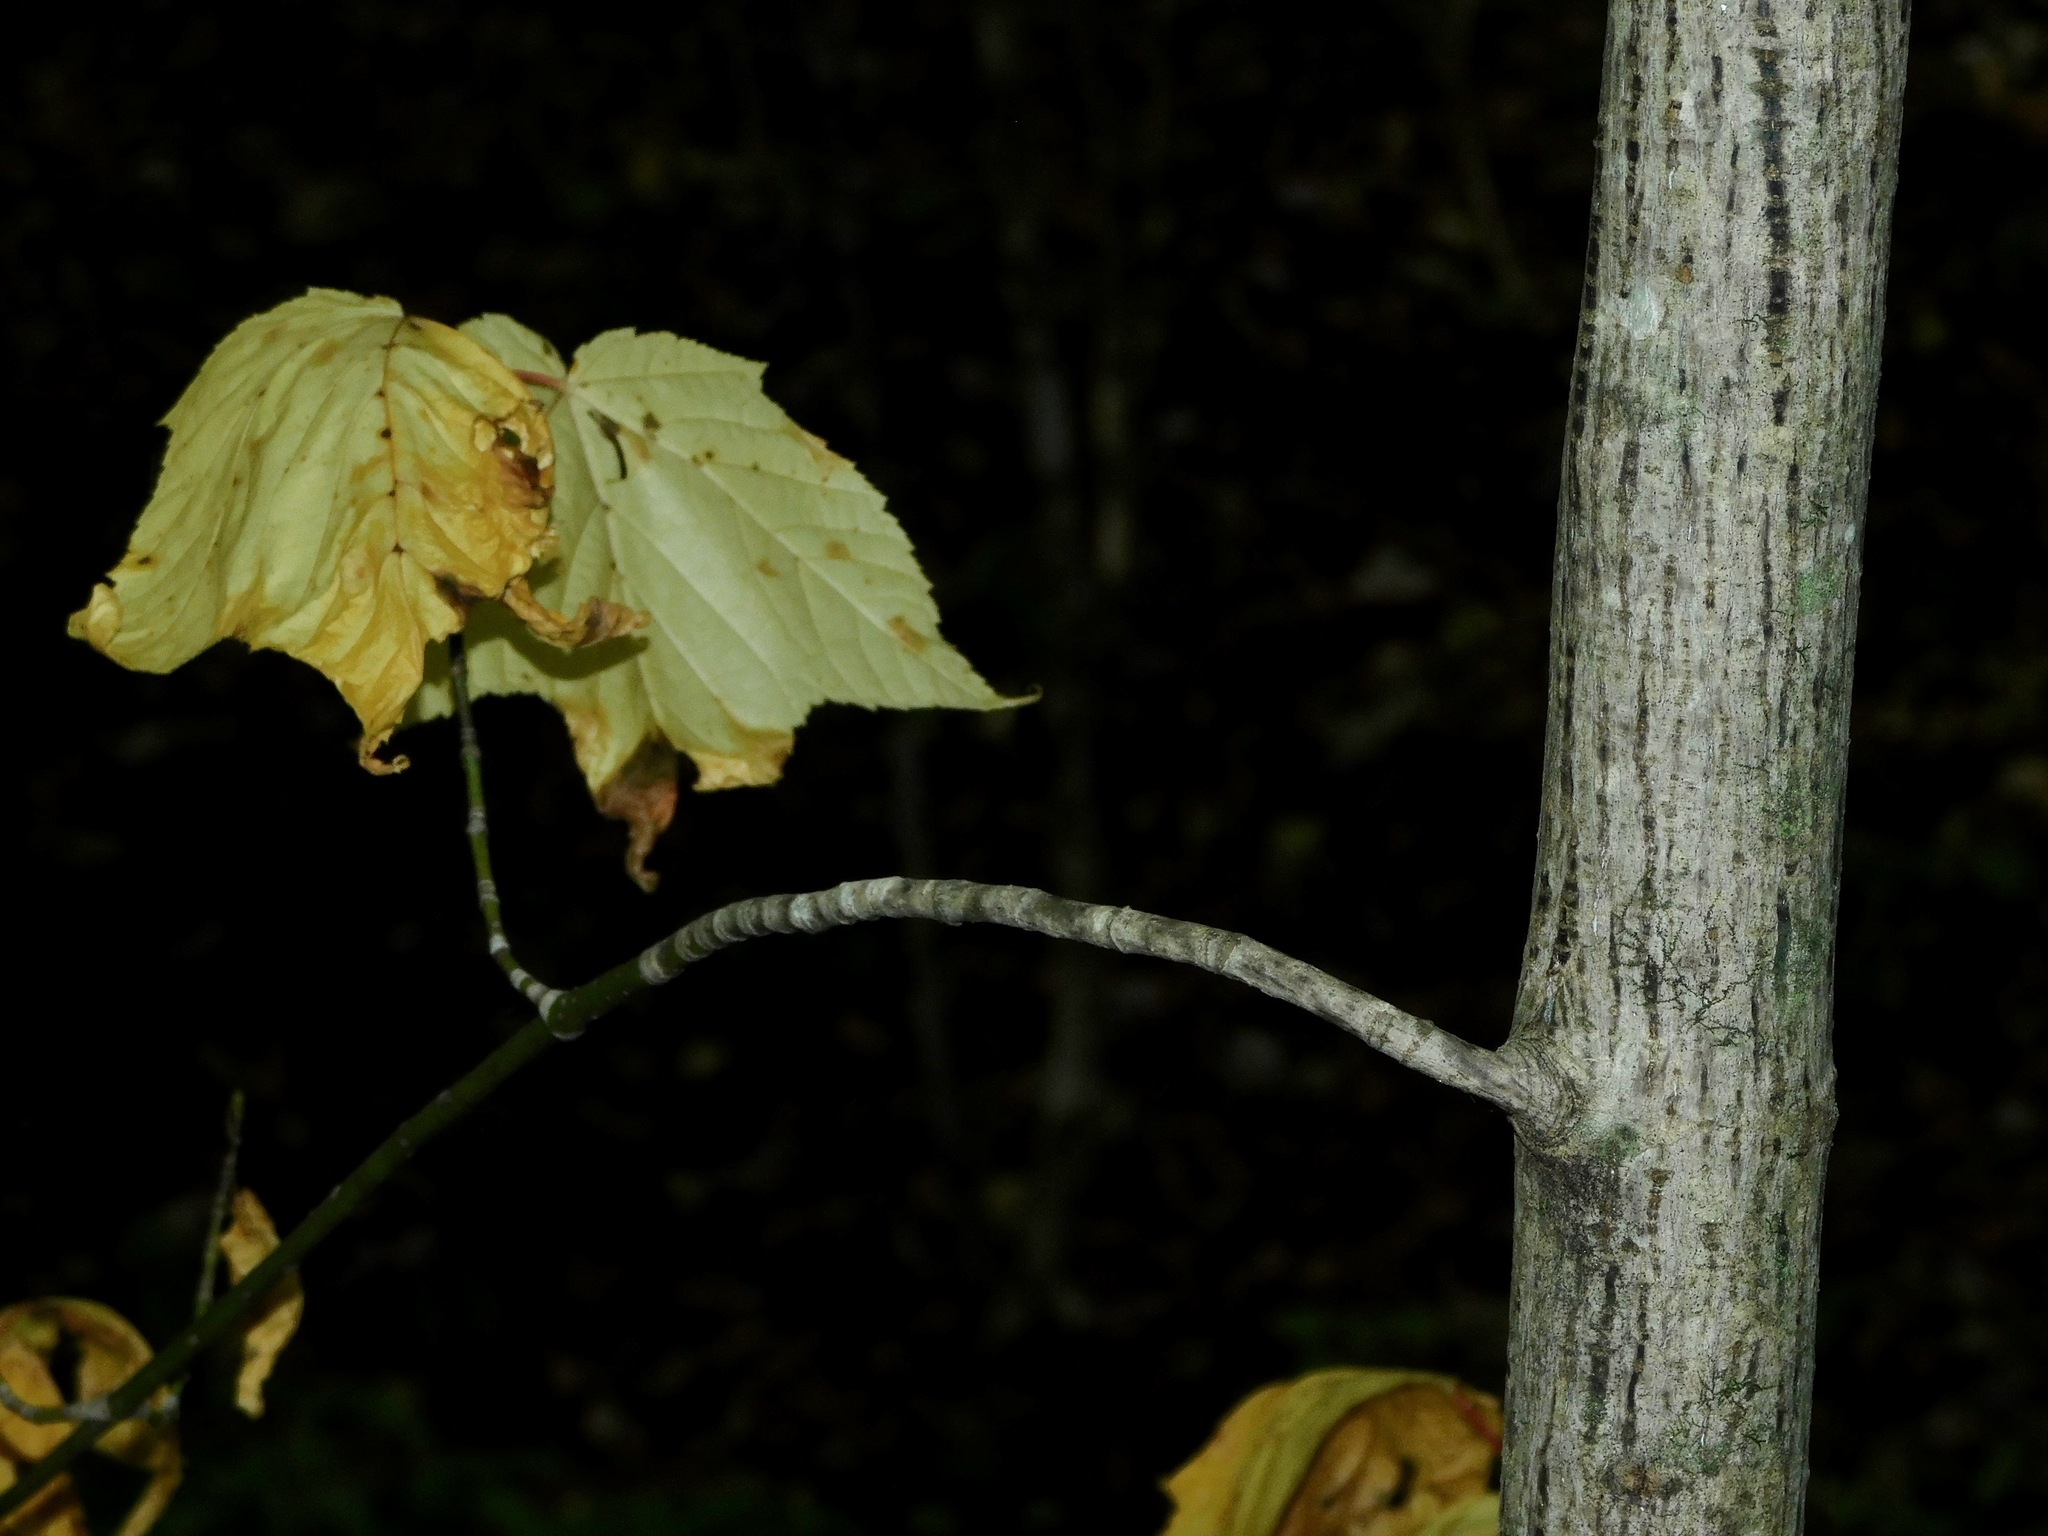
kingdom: Plantae
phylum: Tracheophyta
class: Magnoliopsida
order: Sapindales
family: Sapindaceae
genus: Acer
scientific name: Acer pensylvanicum
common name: Moosewood
